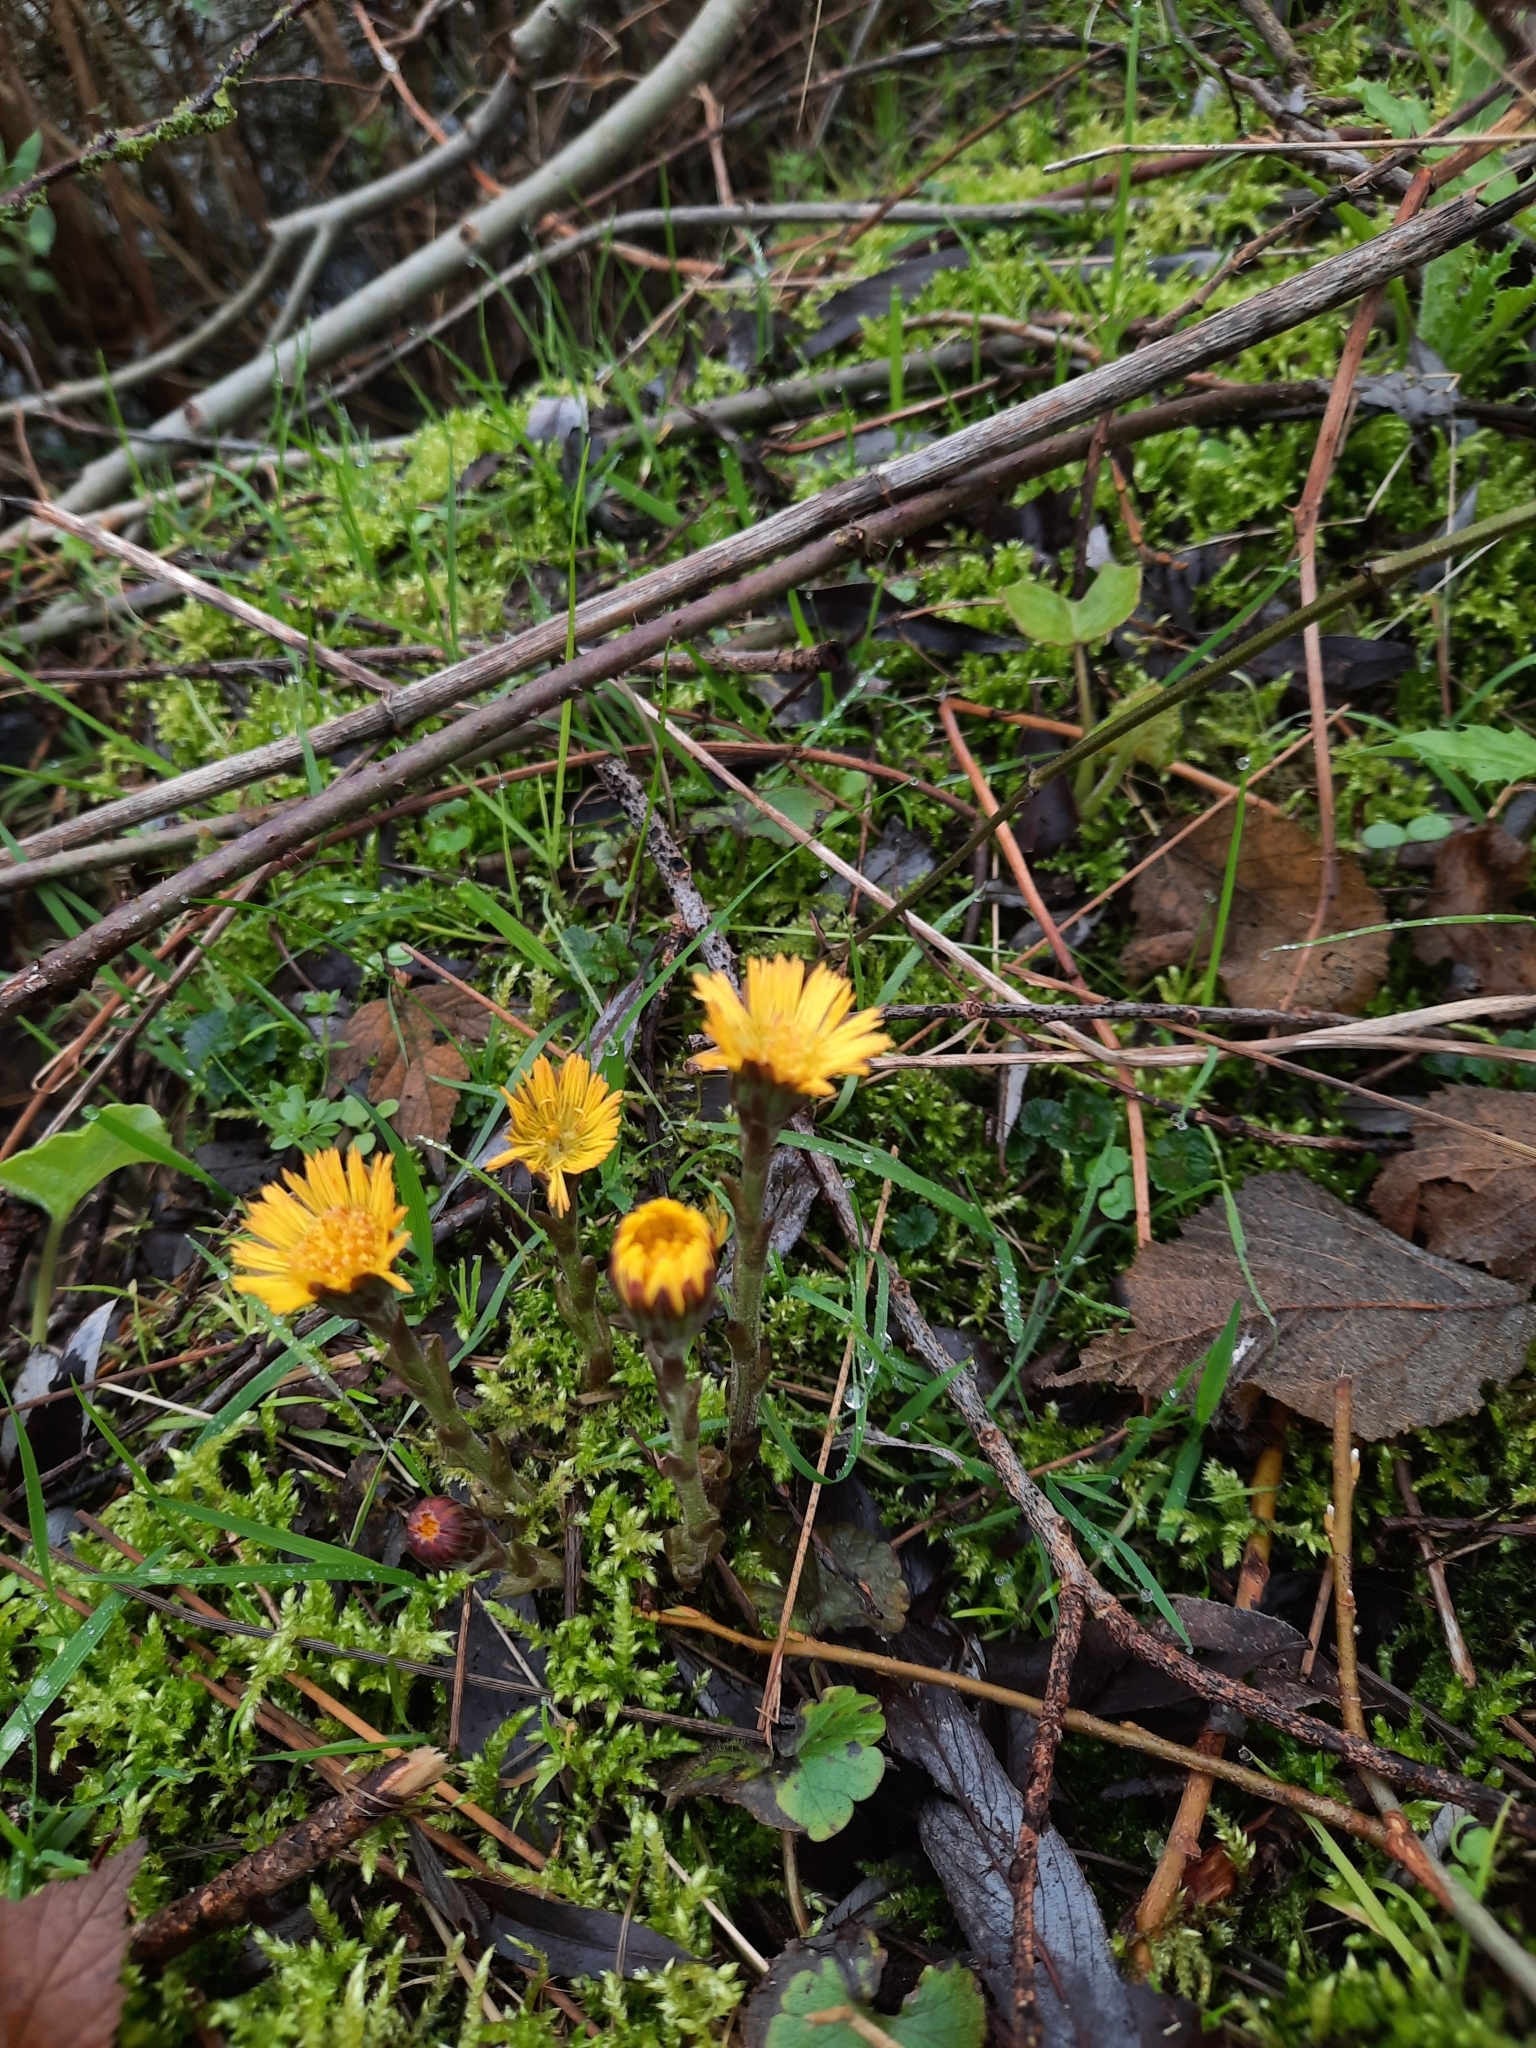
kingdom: Plantae
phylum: Tracheophyta
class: Magnoliopsida
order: Asterales
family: Asteraceae
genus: Tussilago
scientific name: Tussilago farfara
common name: Coltsfoot
